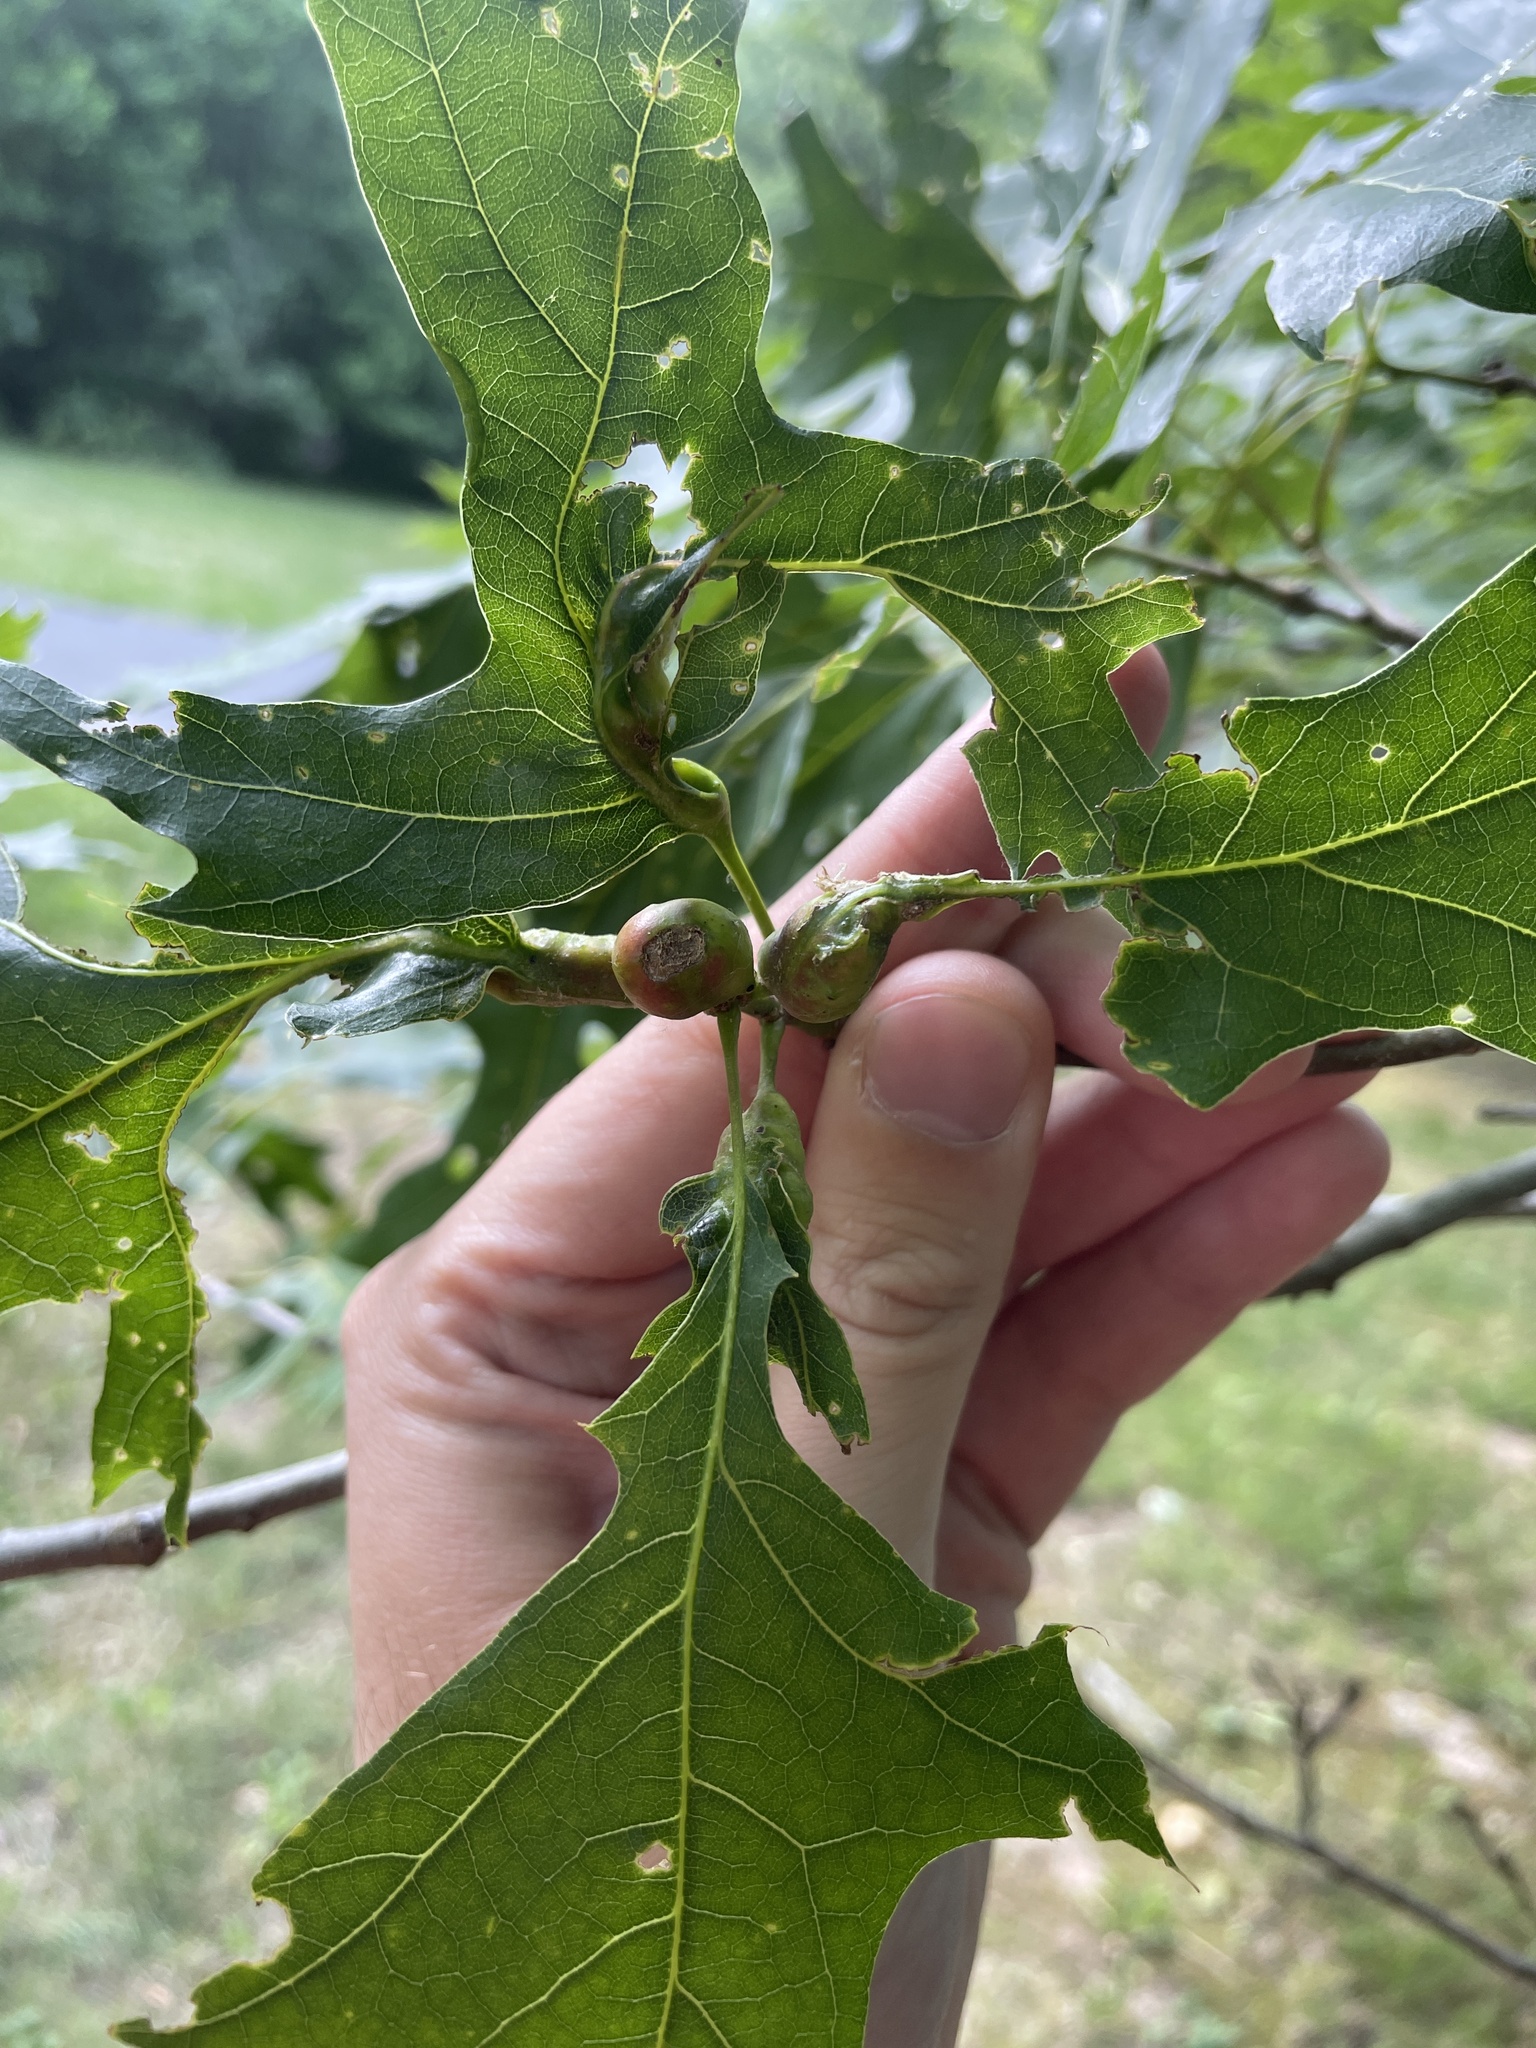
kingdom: Animalia
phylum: Arthropoda
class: Insecta
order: Hymenoptera
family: Cynipidae
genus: Melikaiella
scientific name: Melikaiella tumifica
